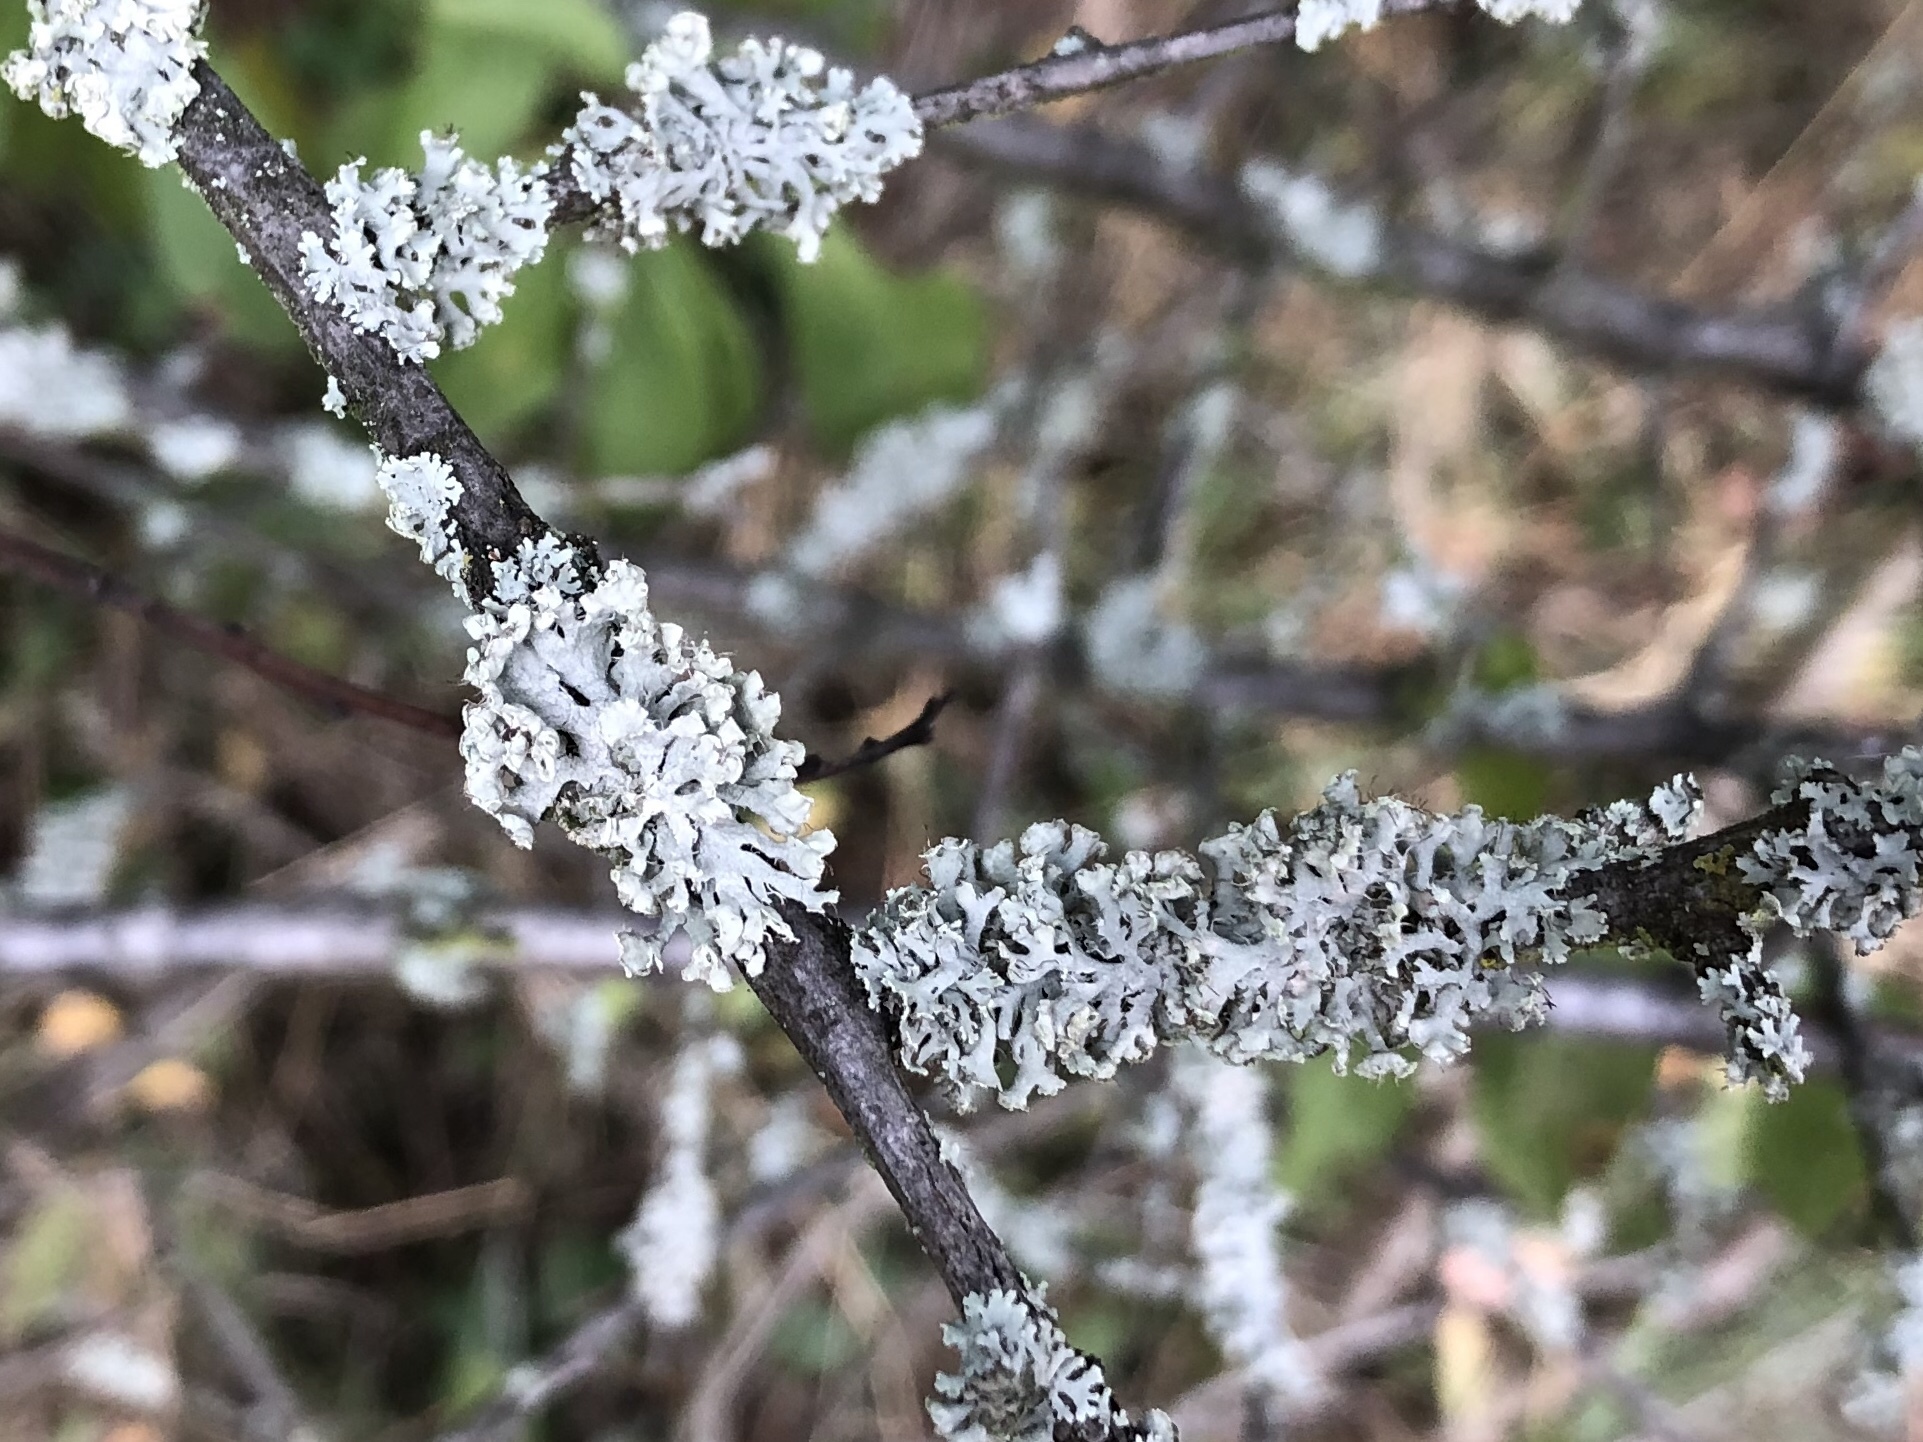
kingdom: Fungi
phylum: Ascomycota
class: Lecanoromycetes
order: Caliciales
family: Physciaceae
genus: Physcia
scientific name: Physcia adscendens
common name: Hooded rosette lichen
